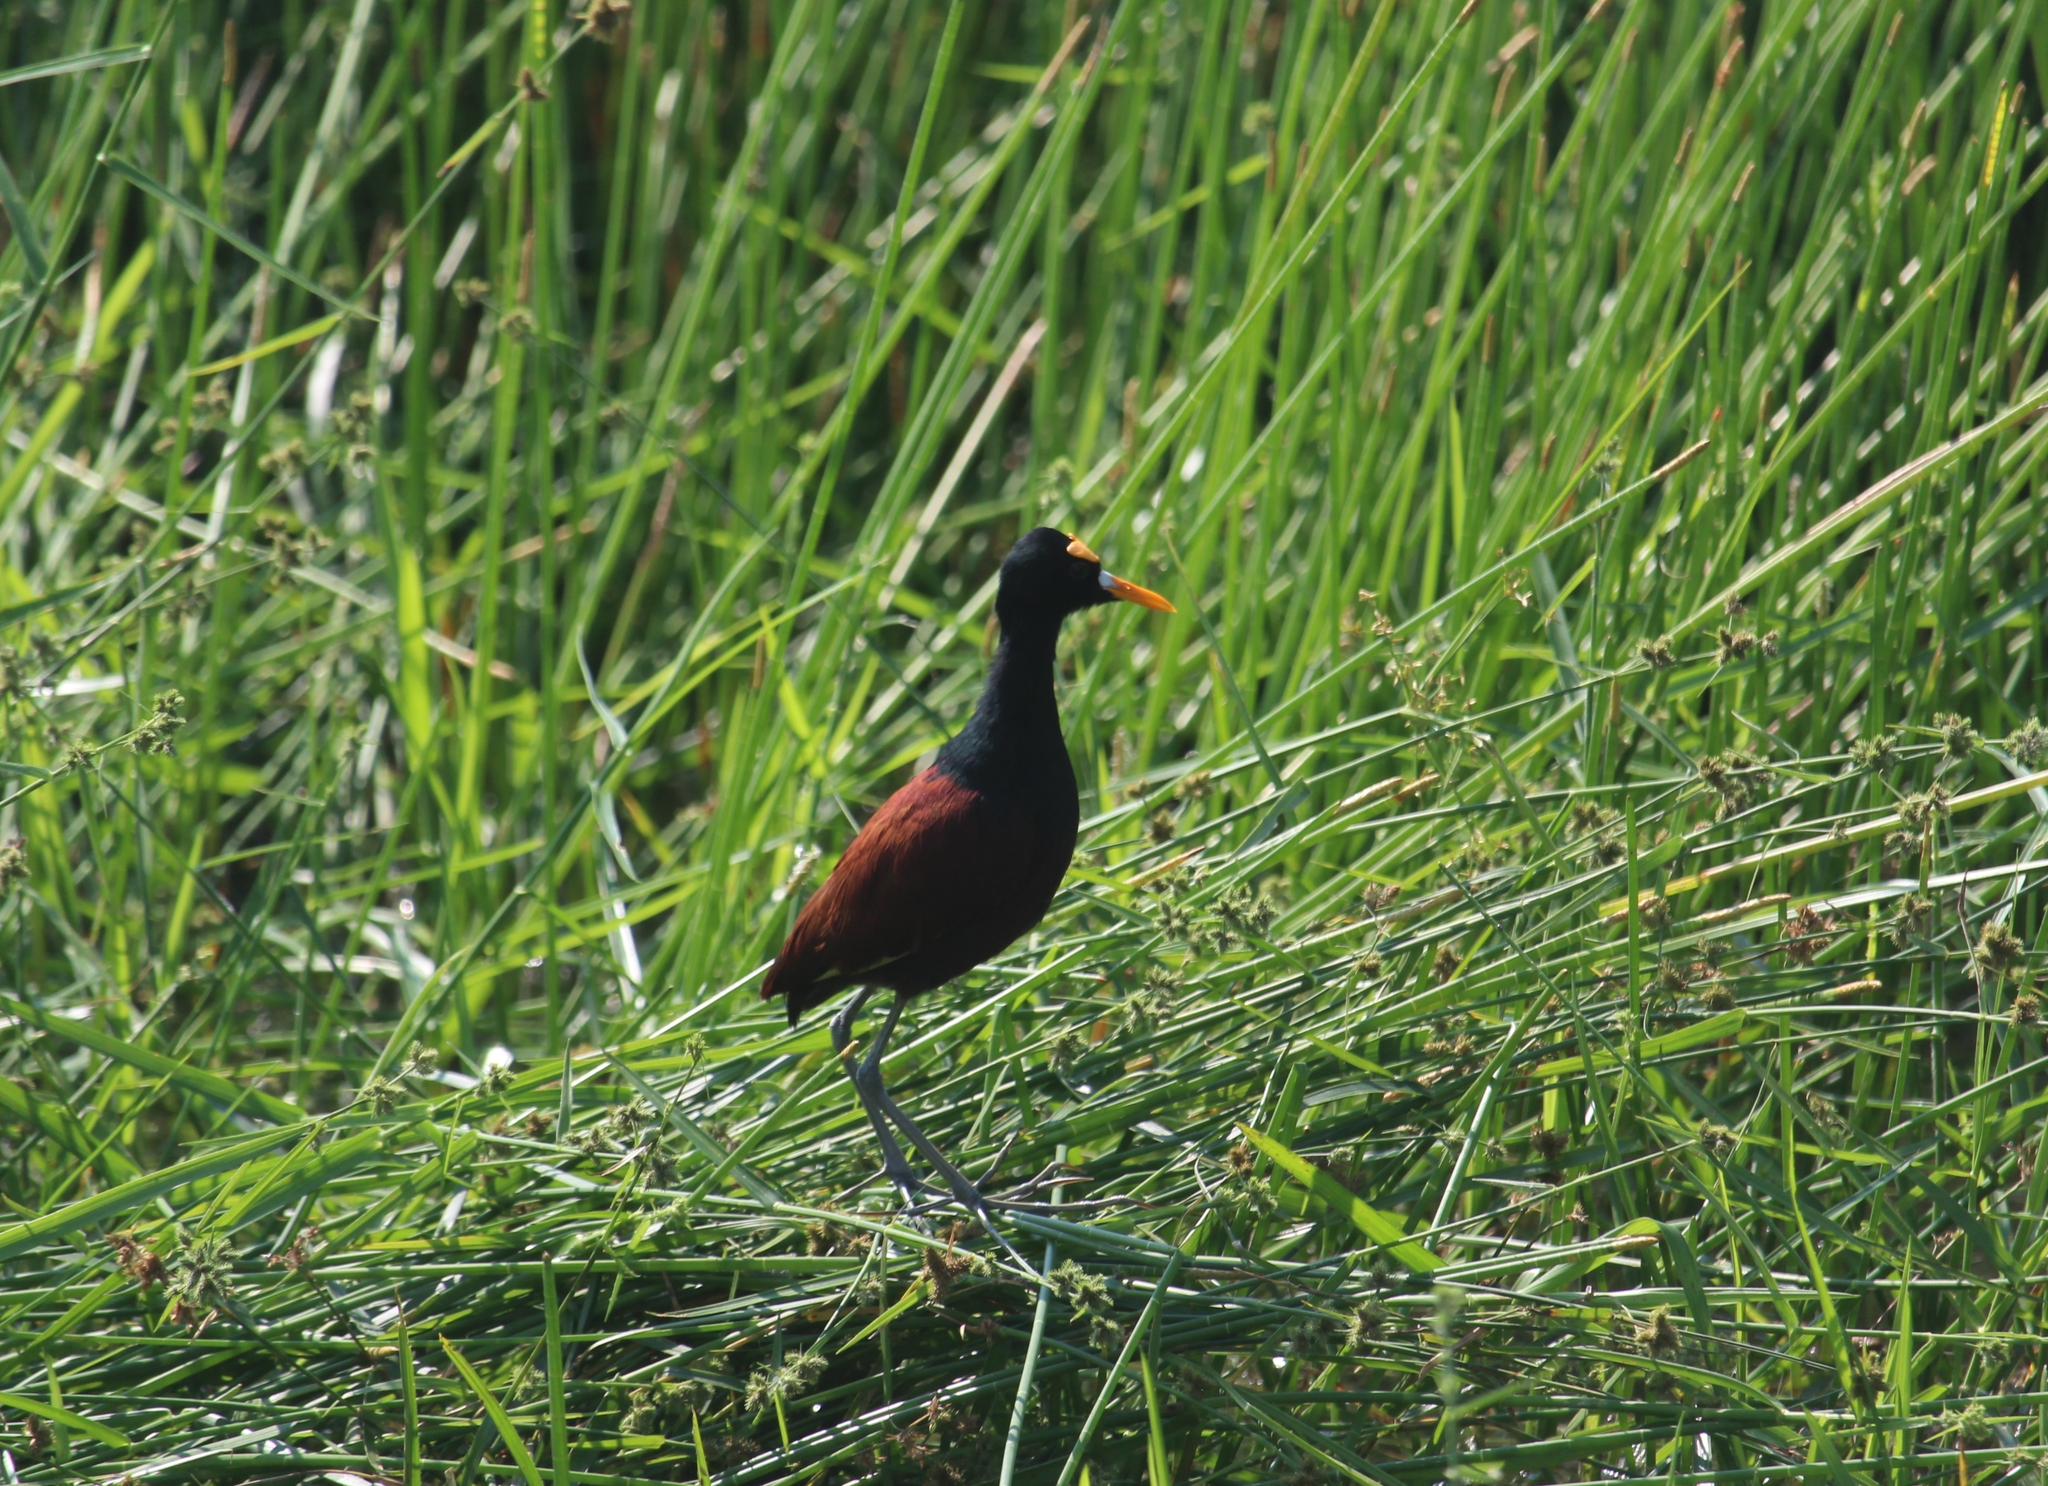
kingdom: Animalia
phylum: Chordata
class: Aves
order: Charadriiformes
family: Jacanidae
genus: Jacana
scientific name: Jacana spinosa
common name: Northern jacana
